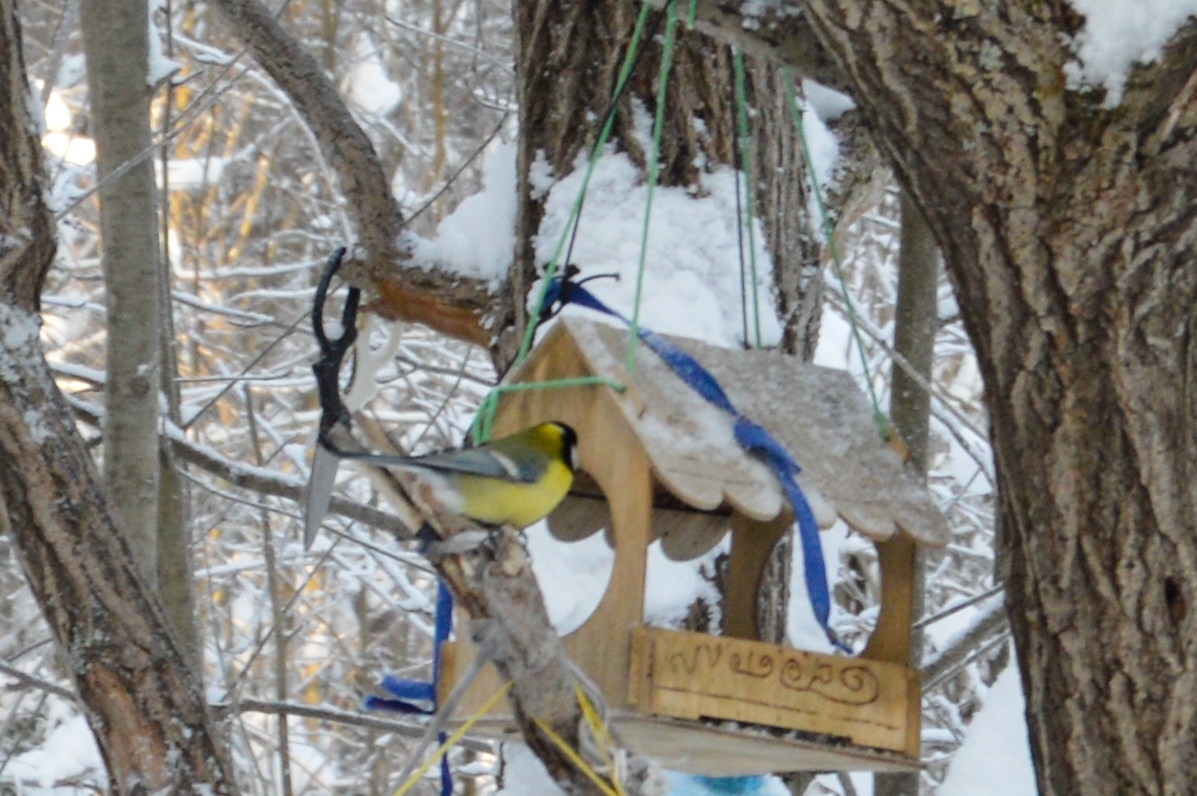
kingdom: Animalia
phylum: Chordata
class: Aves
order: Passeriformes
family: Paridae
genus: Parus
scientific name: Parus major
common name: Great tit
